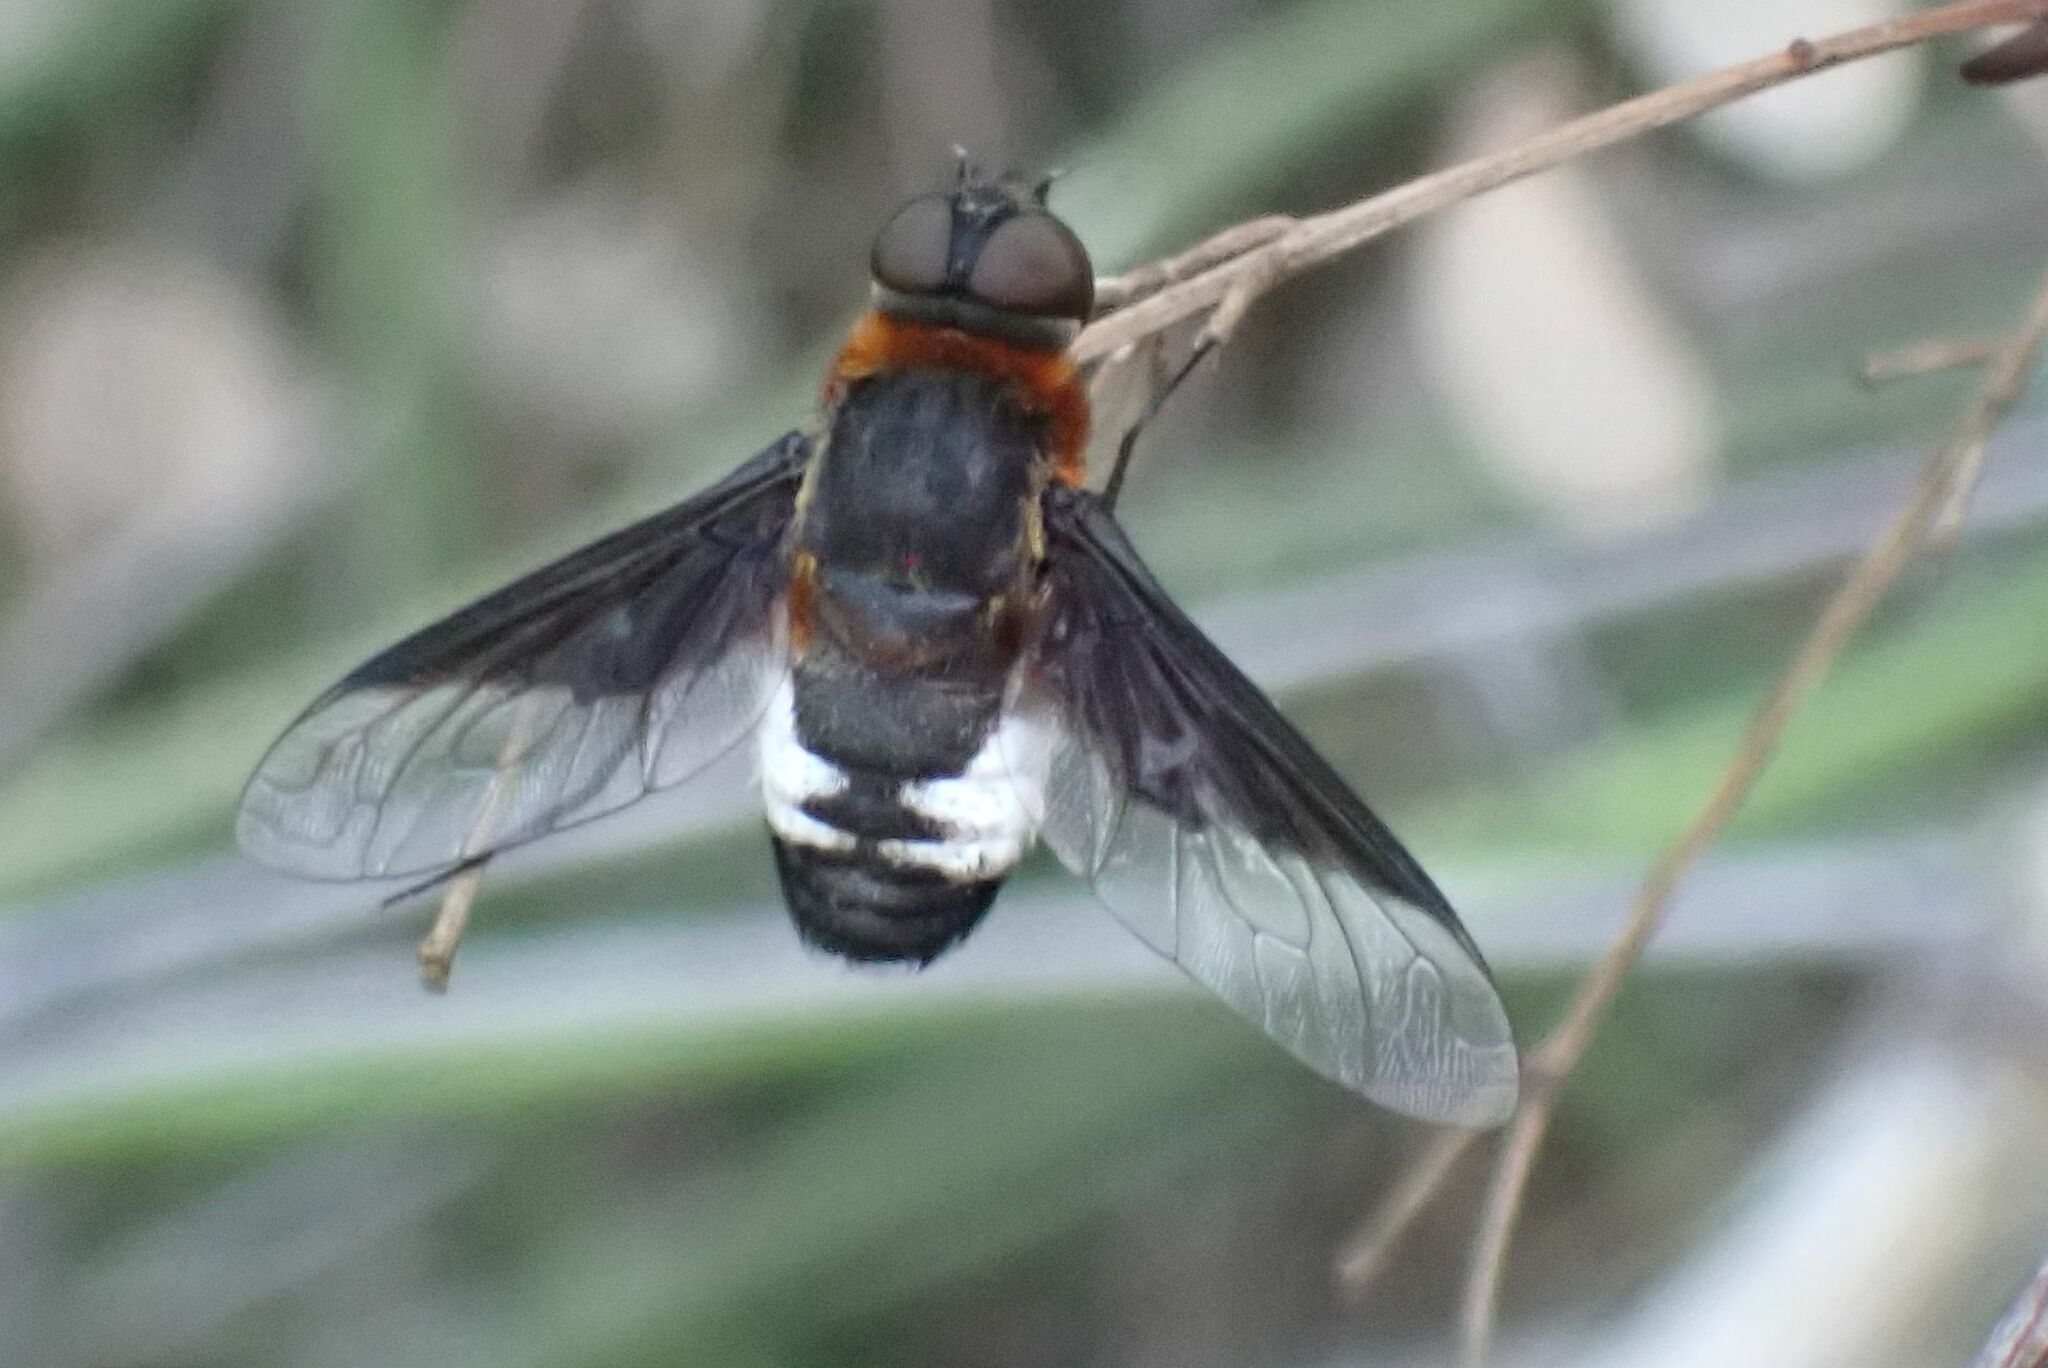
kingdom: Animalia
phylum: Arthropoda
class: Insecta
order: Diptera
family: Bombyliidae
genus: Exoprosopa
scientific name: Exoprosopa dimidiata
